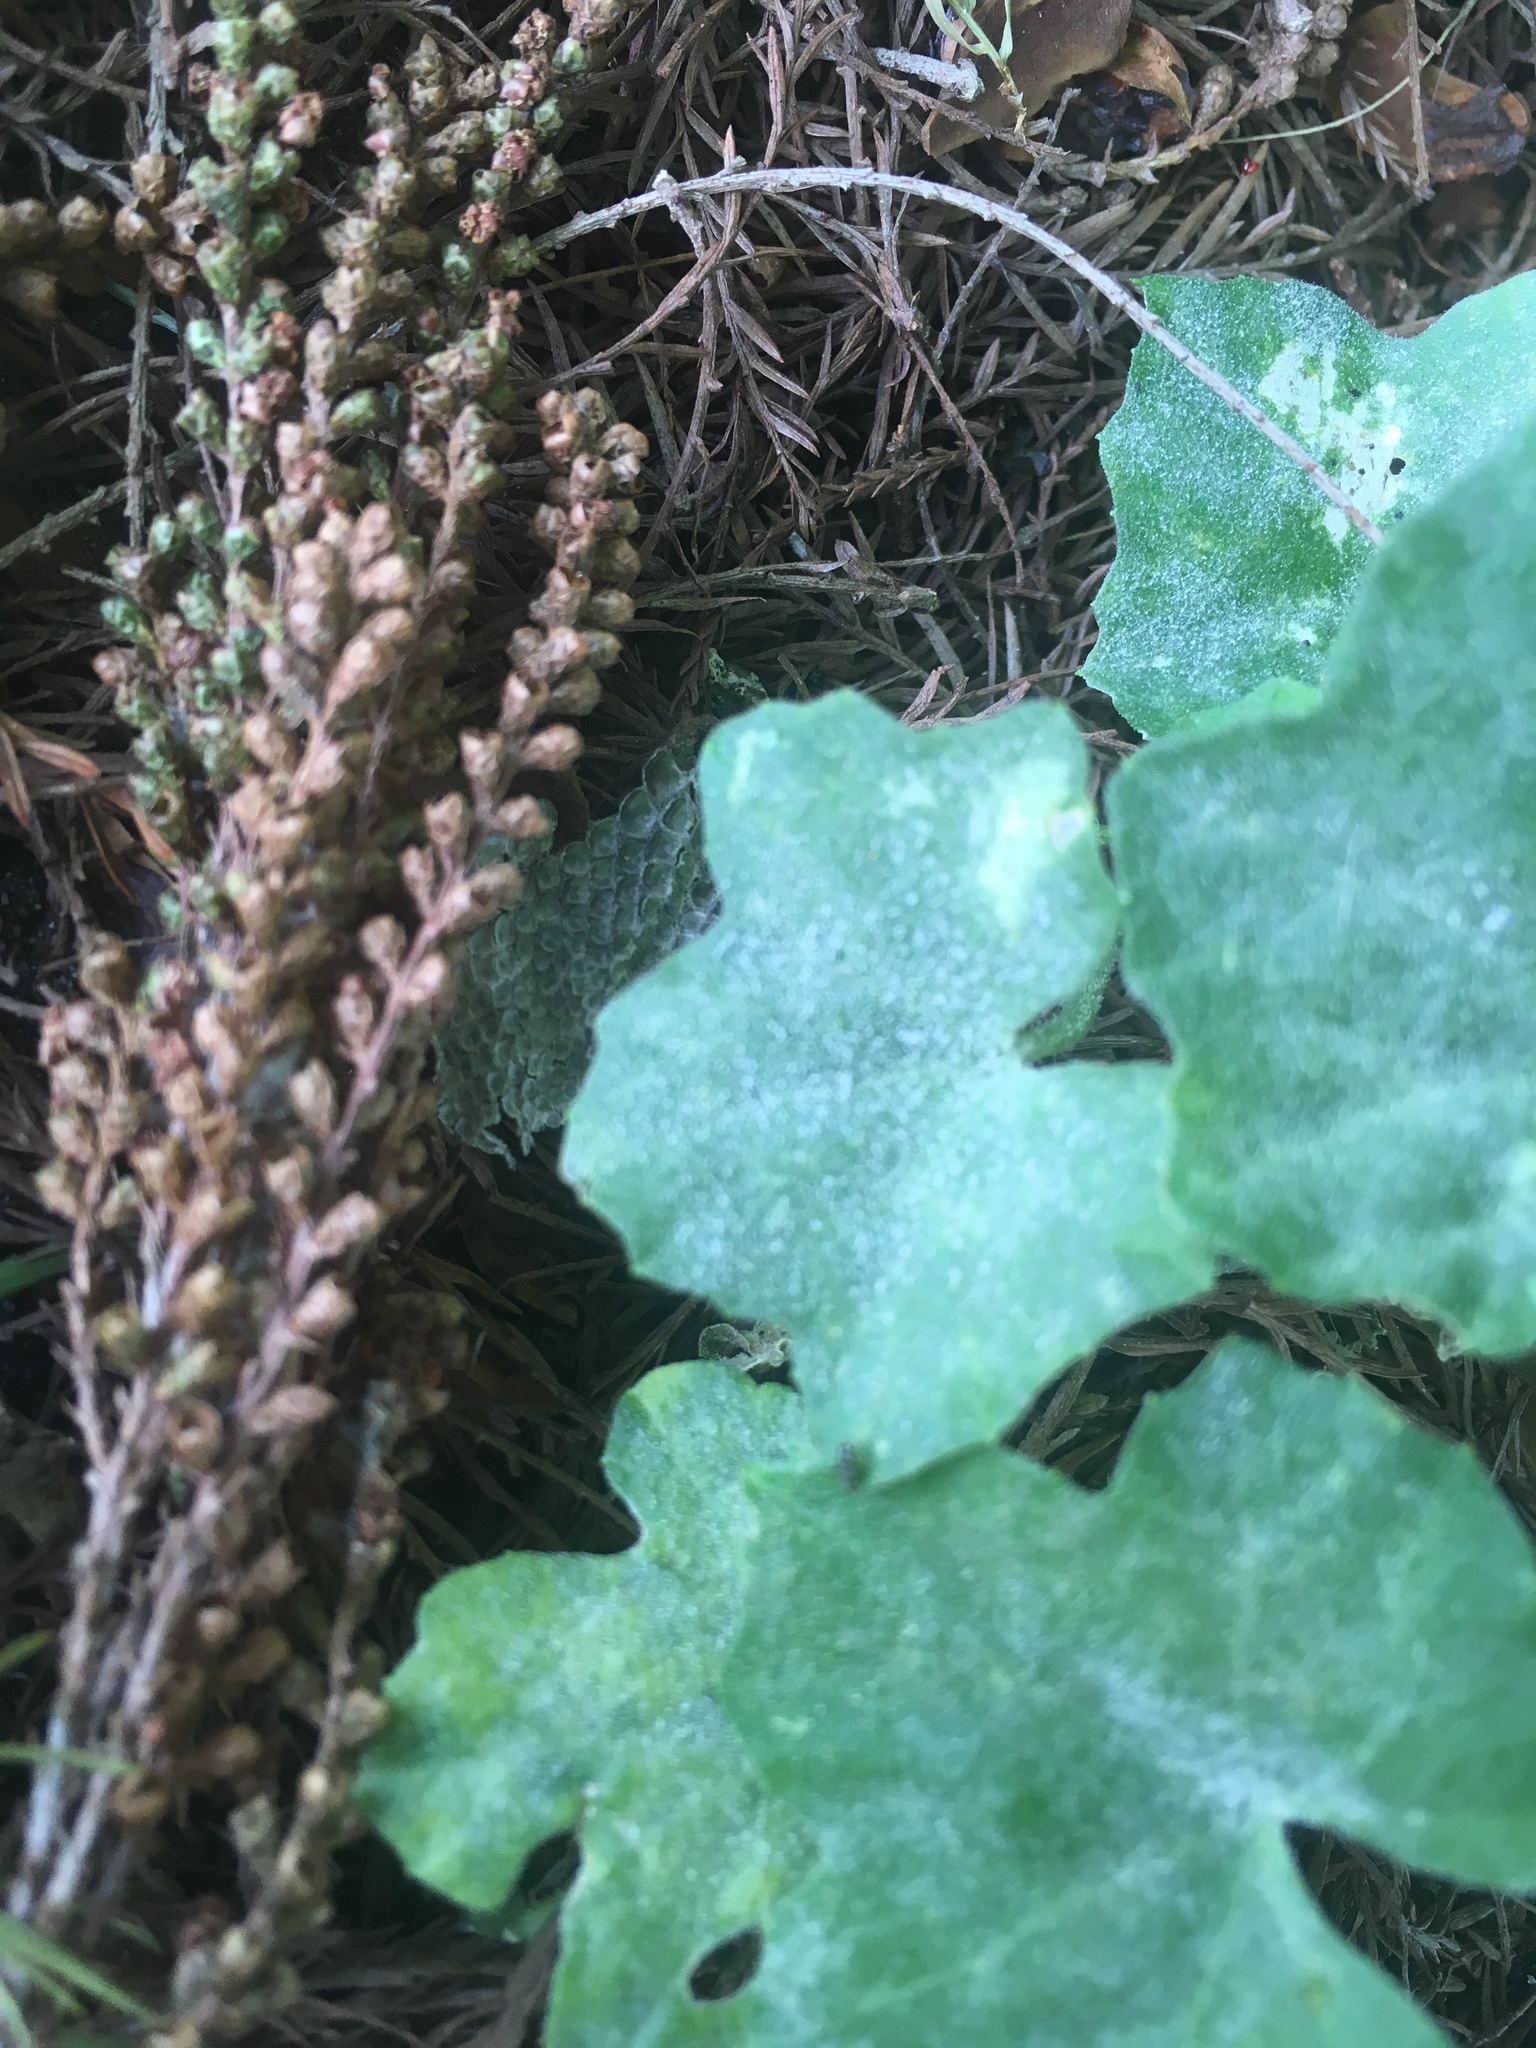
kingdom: Plantae
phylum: Tracheophyta
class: Magnoliopsida
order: Cucurbitales
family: Cucurbitaceae
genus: Melothria
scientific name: Melothria pendula
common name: Creeping-cucumber
